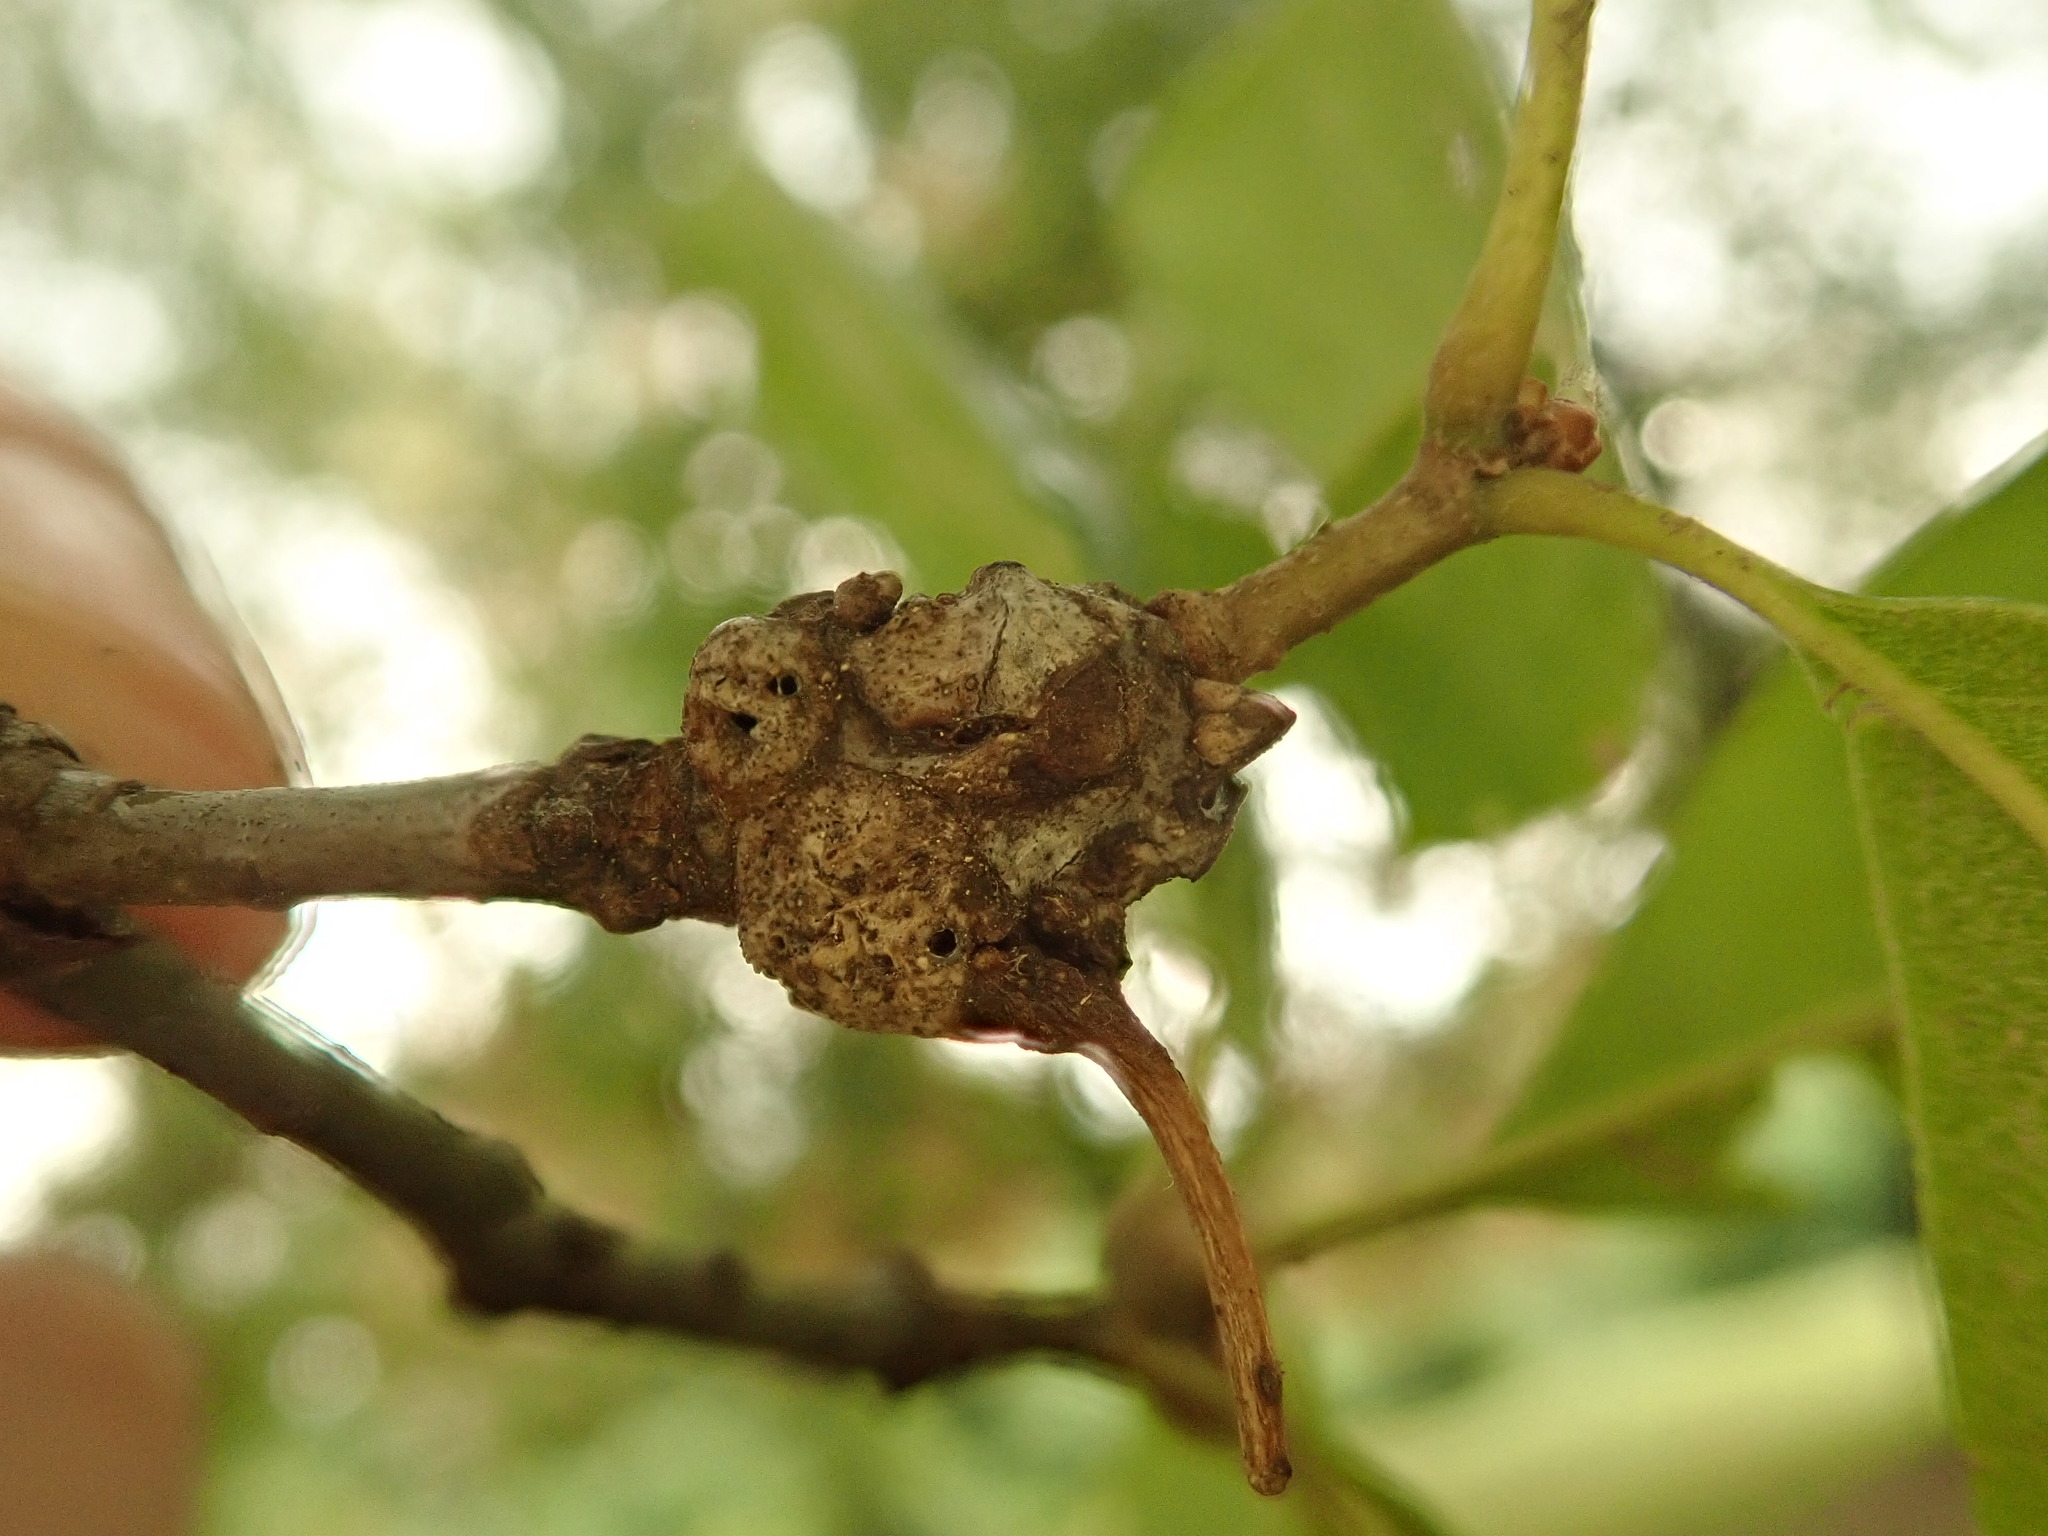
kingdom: Animalia
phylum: Arthropoda
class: Insecta
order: Hymenoptera
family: Cynipidae
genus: Callirhytis
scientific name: Callirhytis
